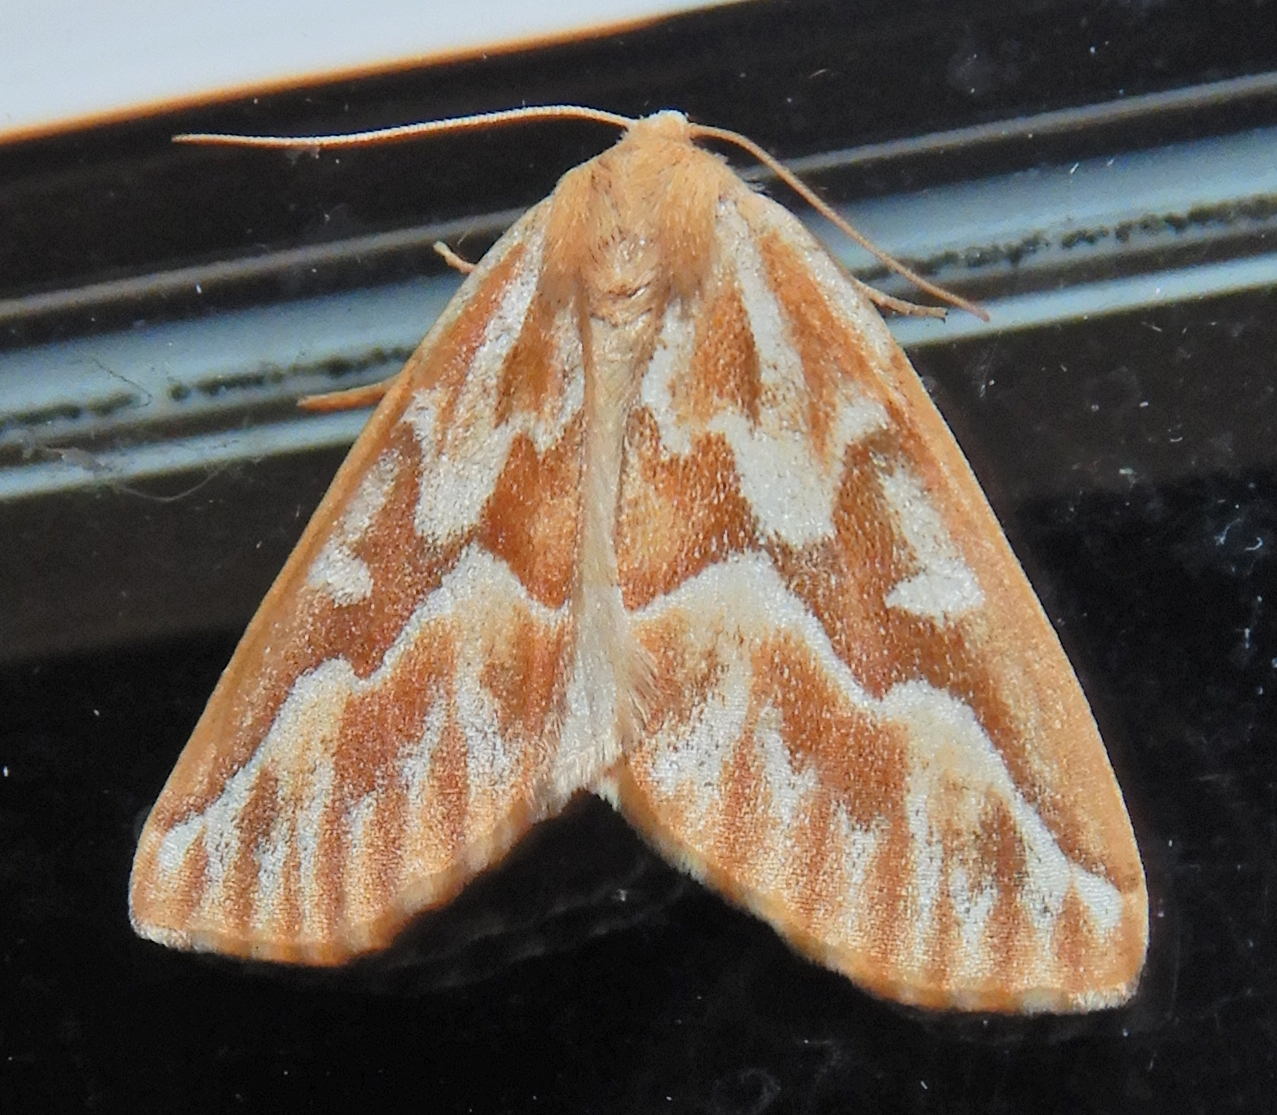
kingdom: Animalia
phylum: Arthropoda
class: Insecta
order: Lepidoptera
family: Geometridae
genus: Caripeta
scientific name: Caripeta piniata
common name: Northern pine looper moth
